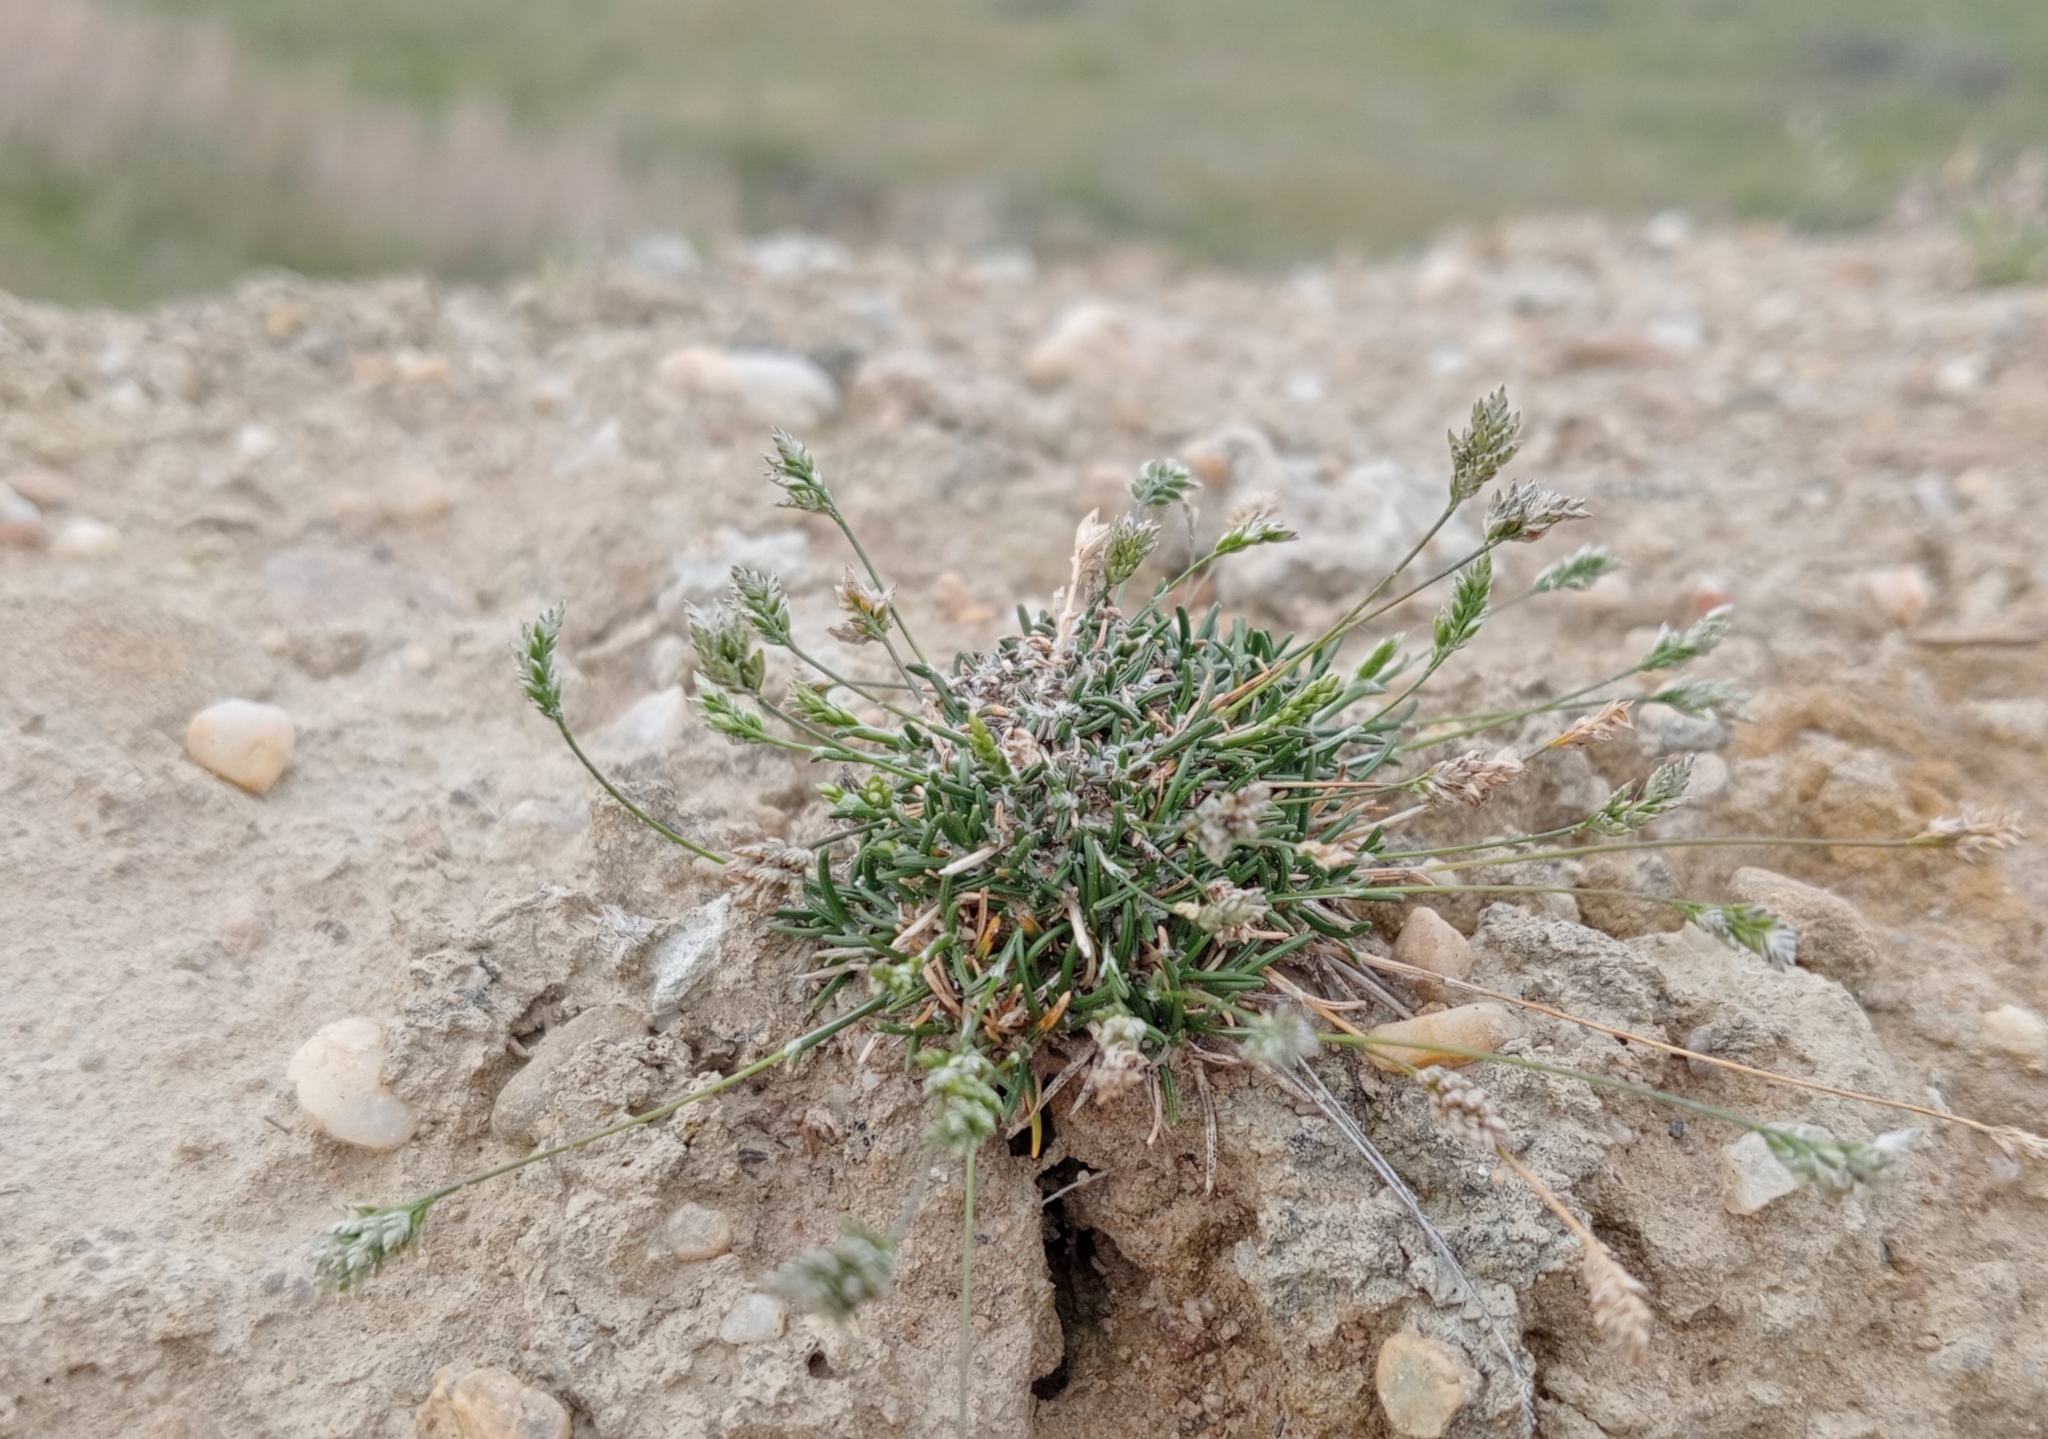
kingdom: Plantae
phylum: Tracheophyta
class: Liliopsida
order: Poales
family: Poaceae
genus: Poa
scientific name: Poa maniototo
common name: Desert poa
